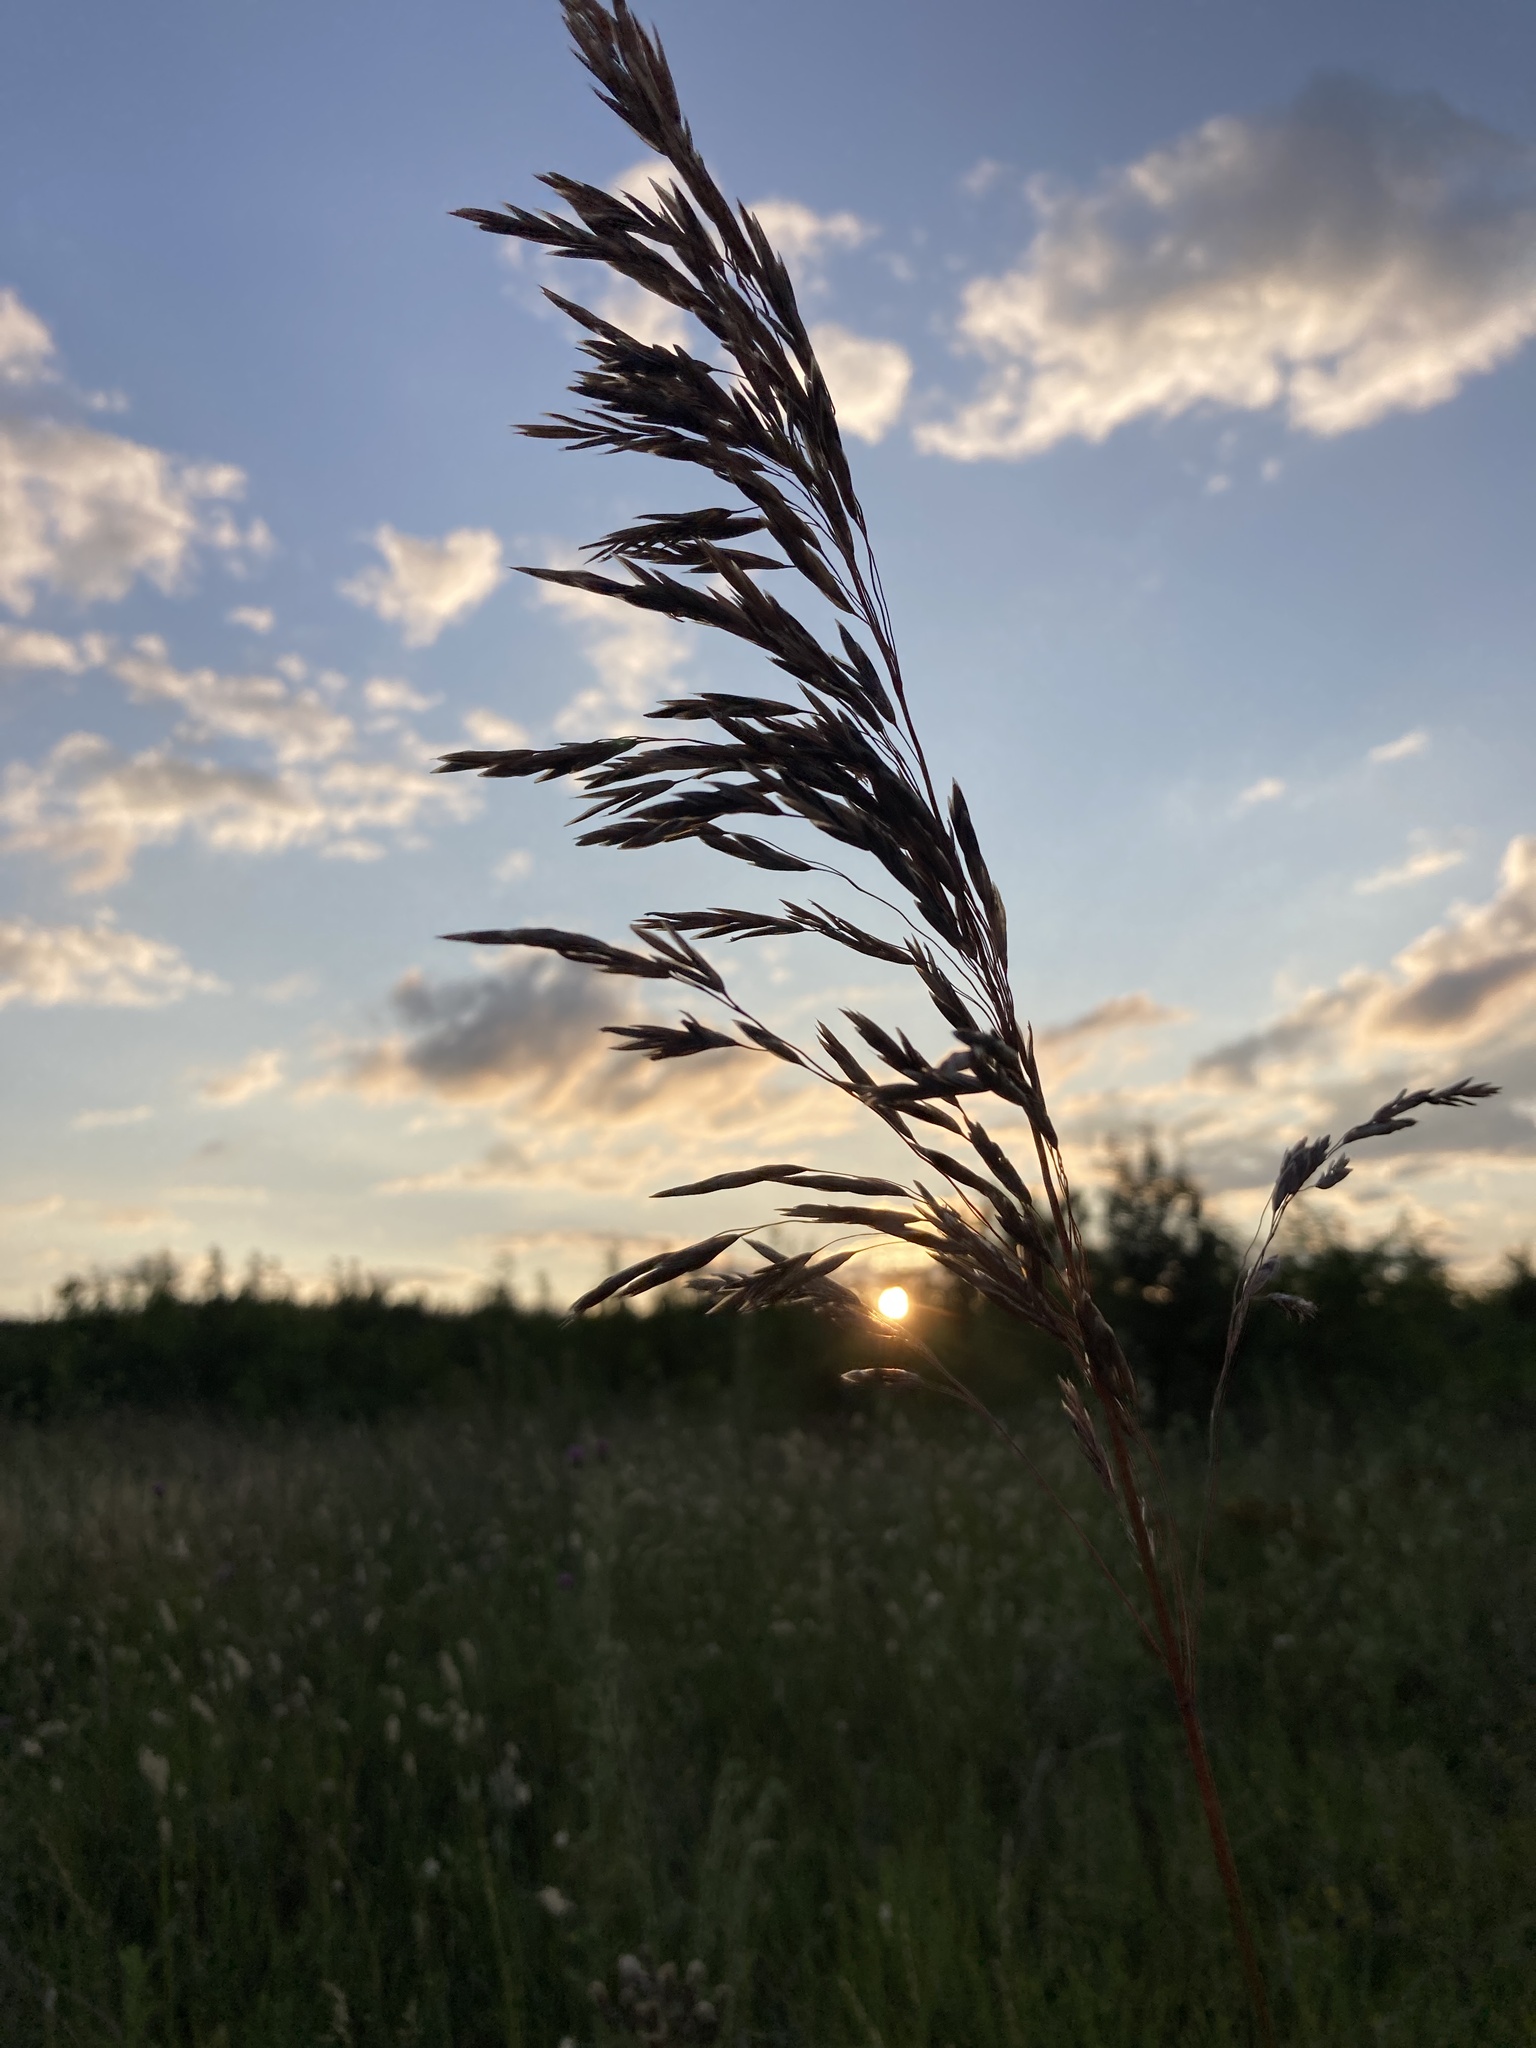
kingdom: Plantae
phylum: Tracheophyta
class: Liliopsida
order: Poales
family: Poaceae
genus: Bromus
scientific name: Bromus inermis
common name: Smooth brome
